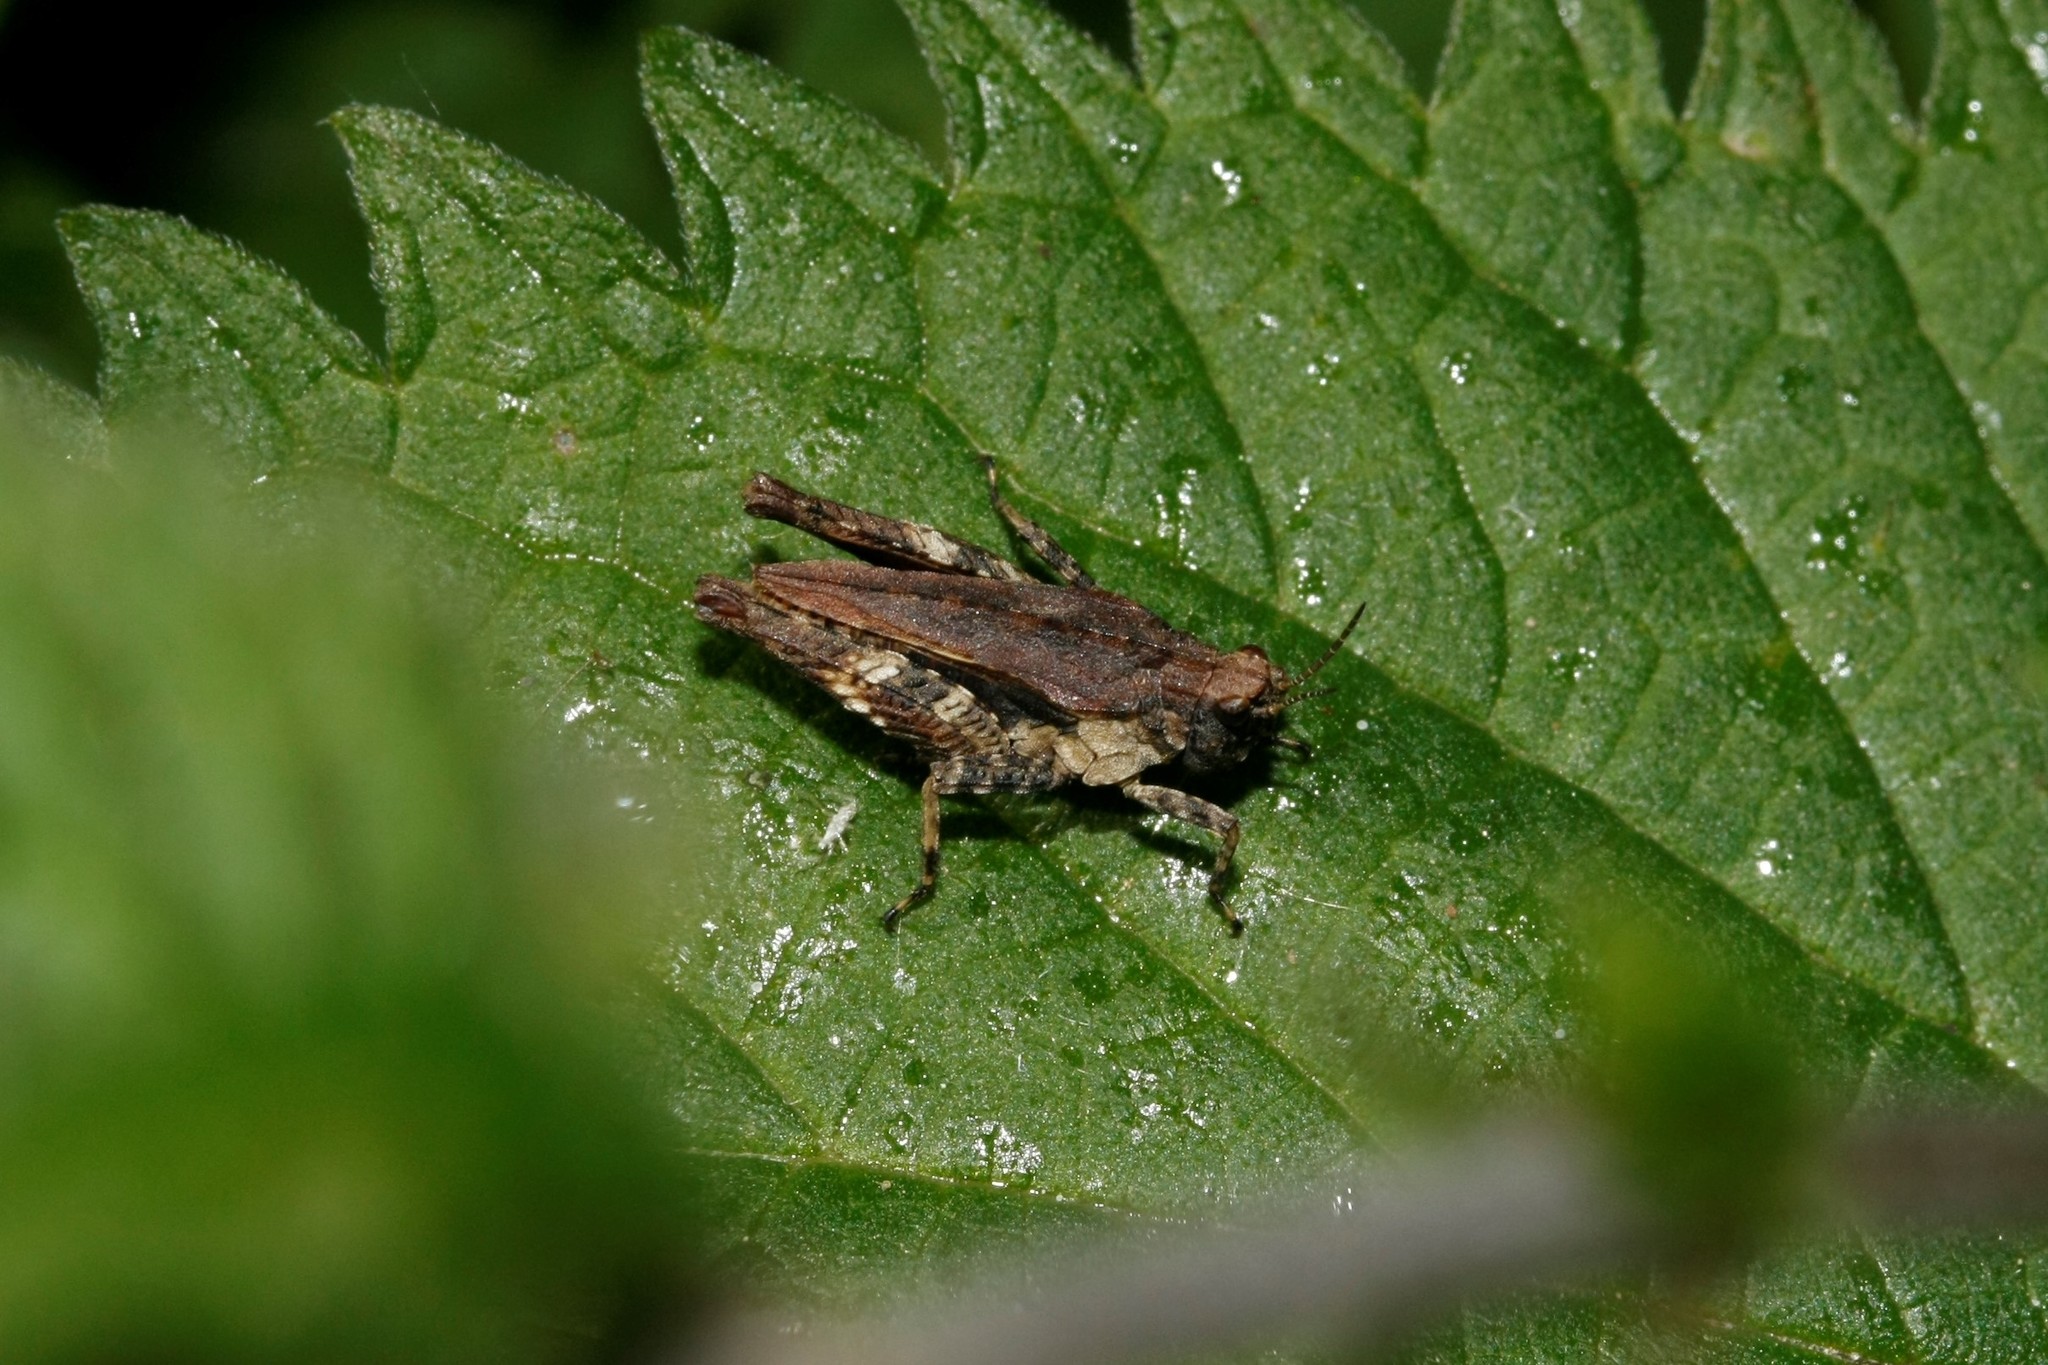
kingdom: Animalia
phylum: Arthropoda
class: Insecta
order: Orthoptera
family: Tetrigidae
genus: Tetrix
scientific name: Tetrix undulata
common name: Common groundhopper
